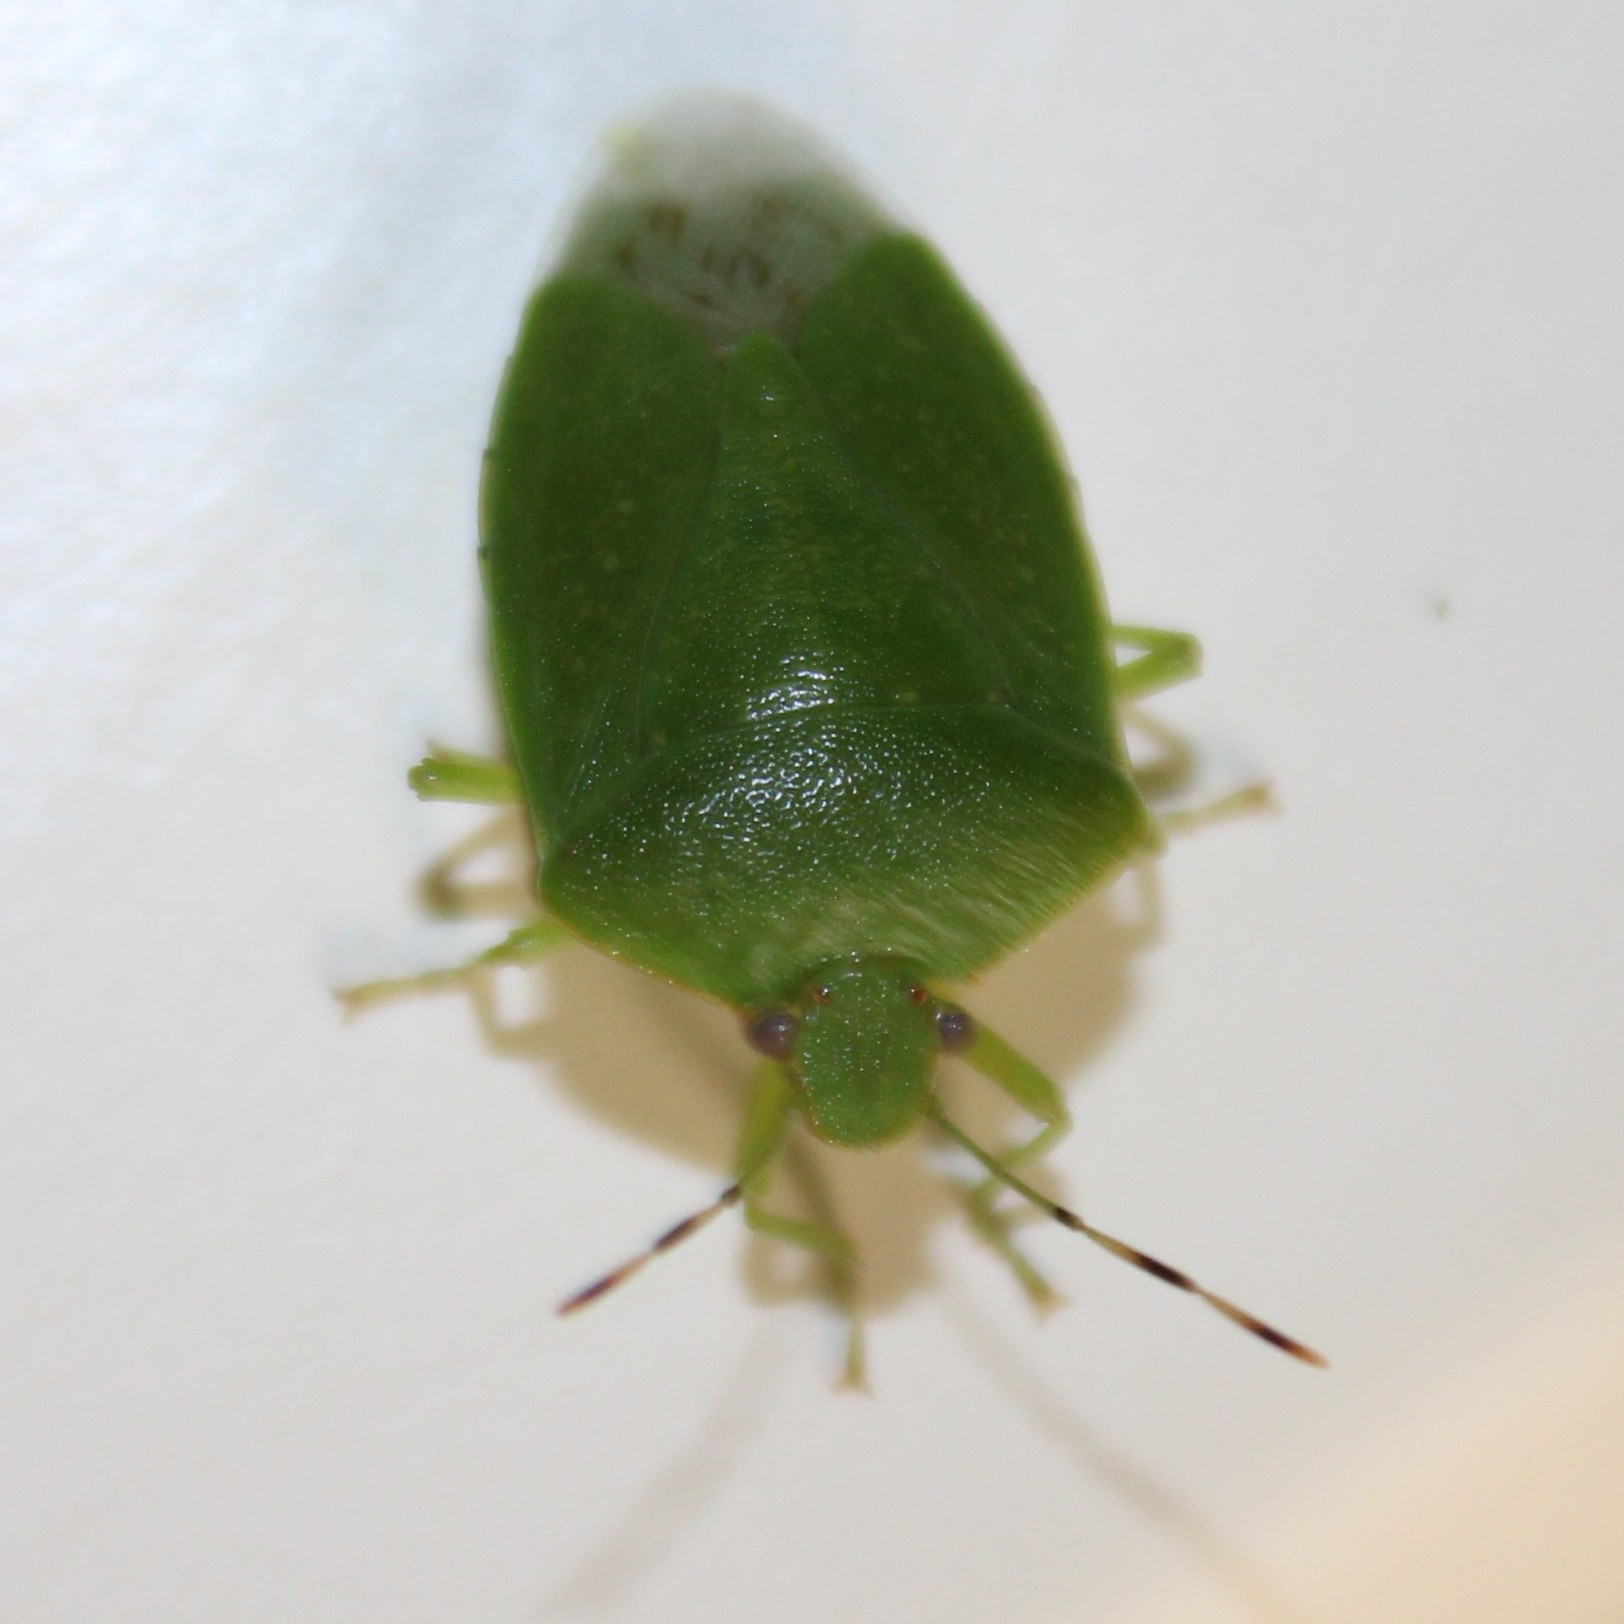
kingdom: Animalia
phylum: Arthropoda
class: Insecta
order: Hemiptera
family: Pentatomidae
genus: Chinavia
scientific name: Chinavia hilaris
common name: Green stink bug
